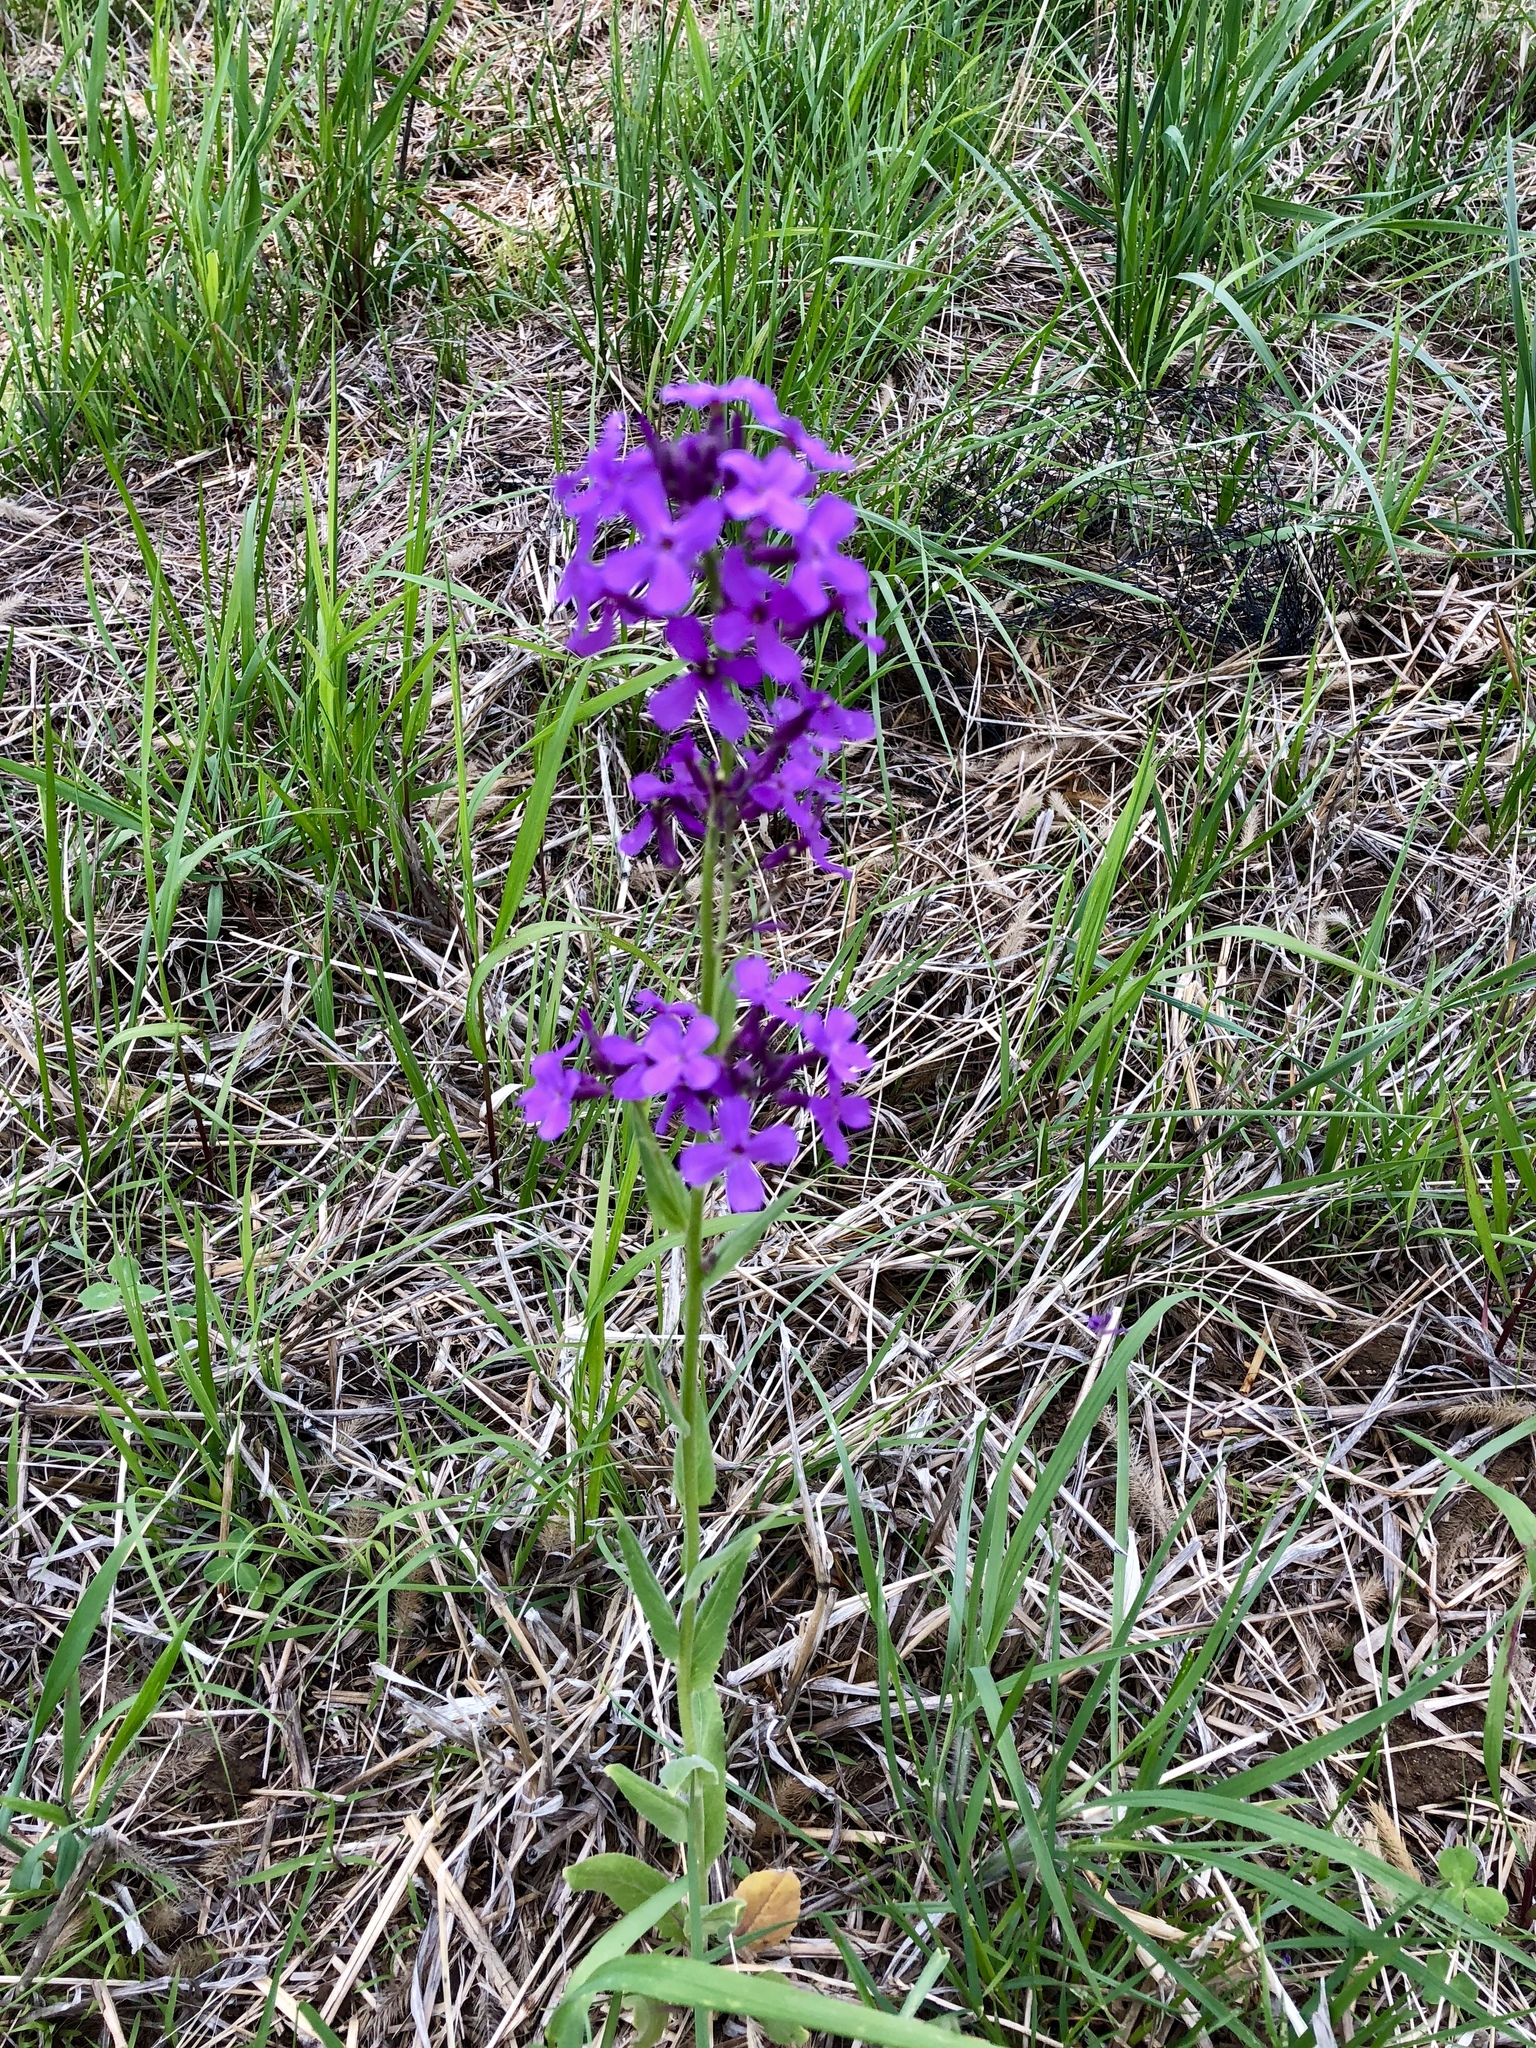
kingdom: Plantae
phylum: Tracheophyta
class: Magnoliopsida
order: Brassicales
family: Brassicaceae
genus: Hesperis
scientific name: Hesperis matronalis
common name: Dame's-violet
